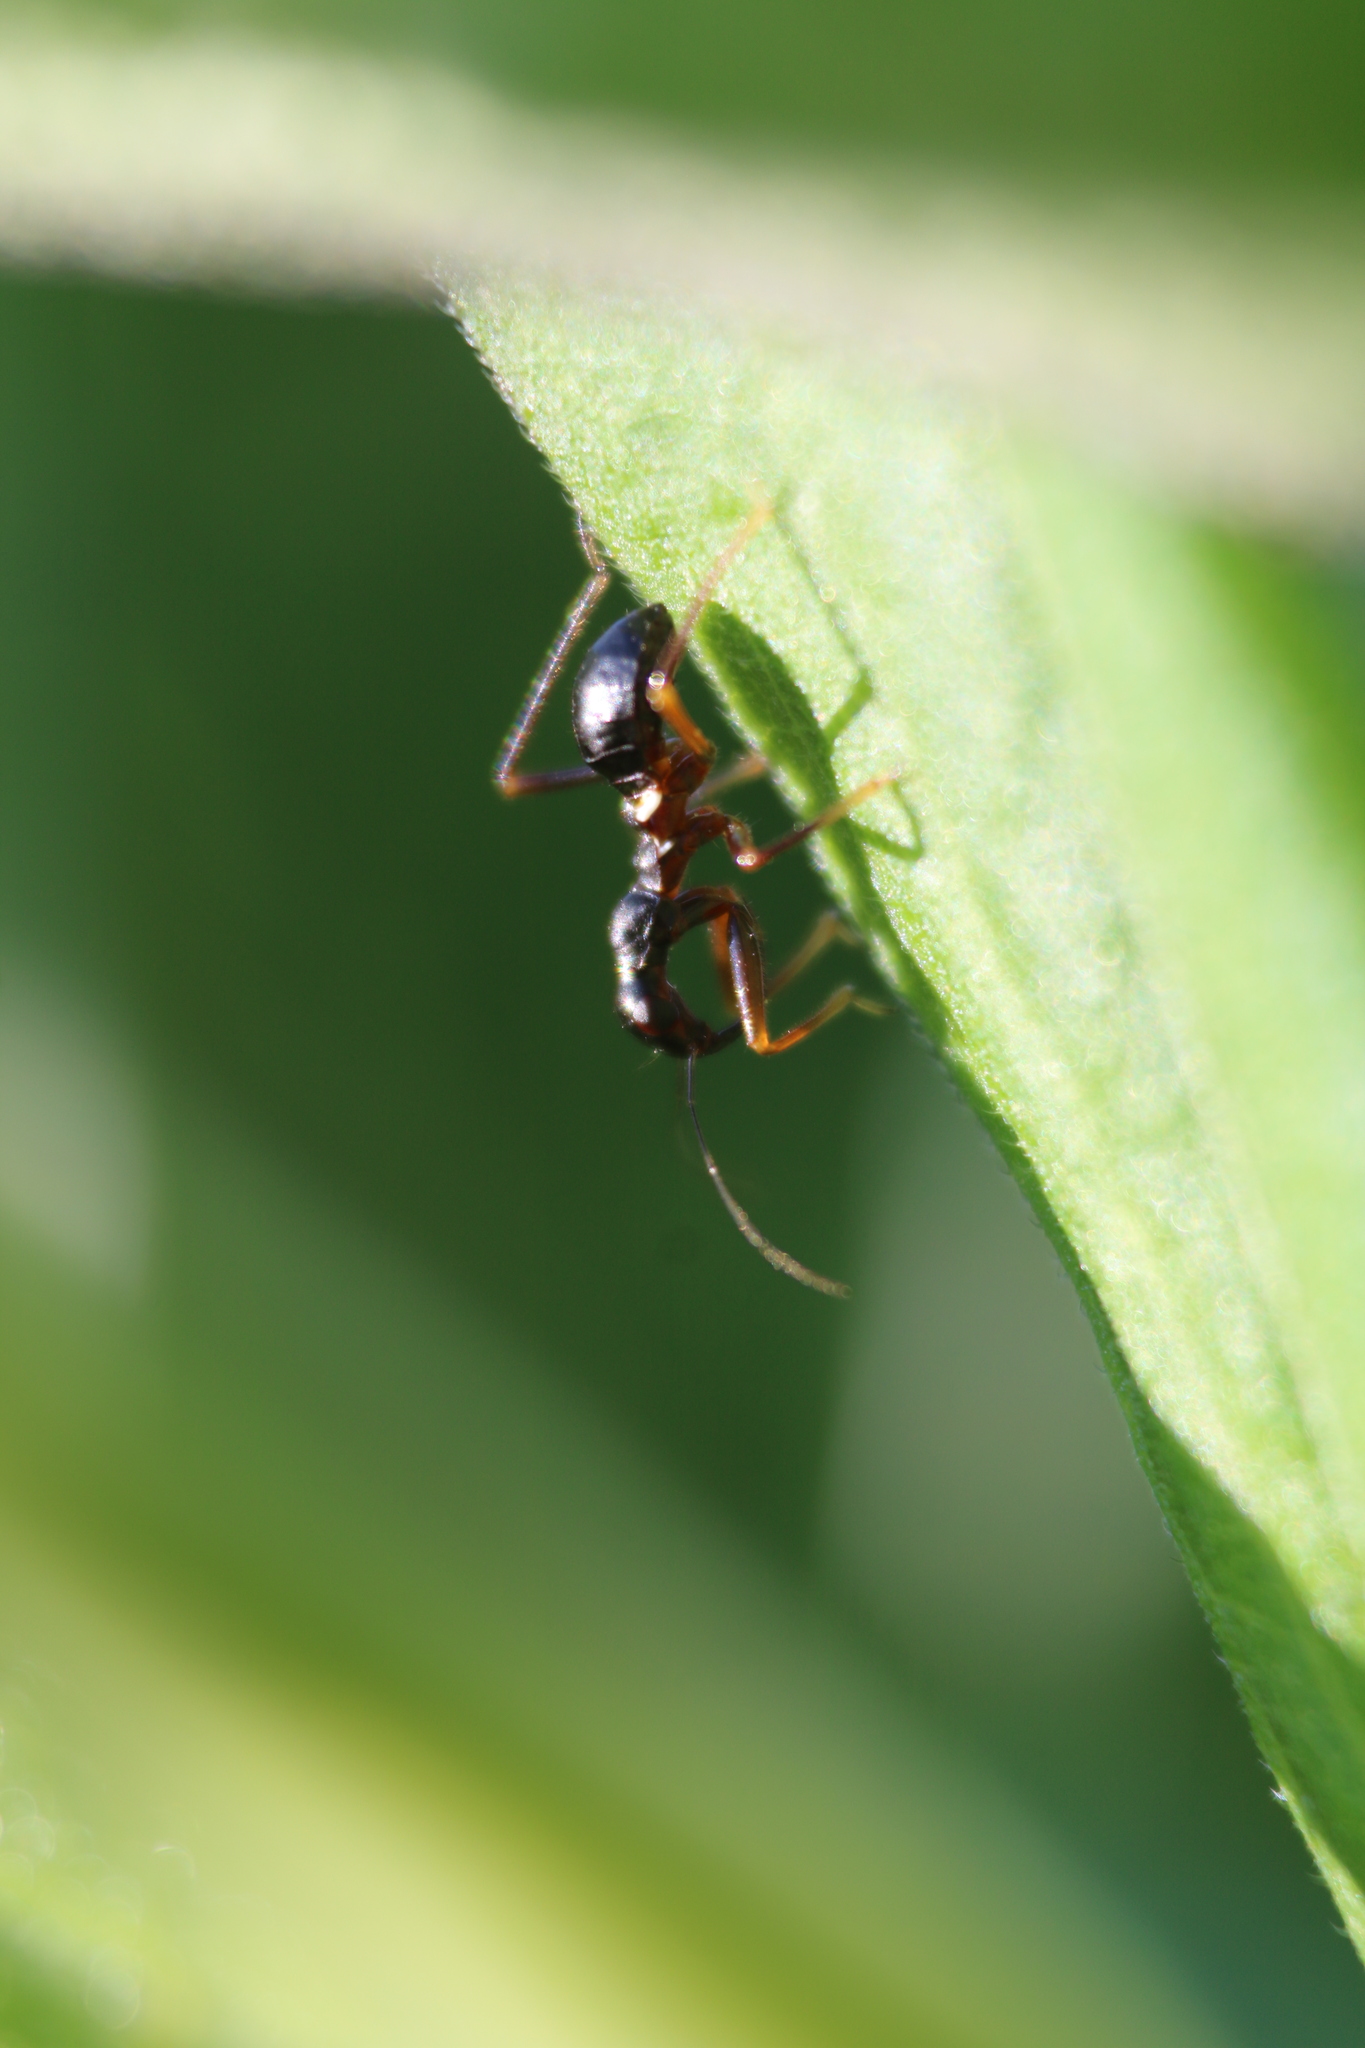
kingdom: Animalia
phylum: Arthropoda
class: Insecta
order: Hemiptera
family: Nabidae
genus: Nabis
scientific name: Nabis
